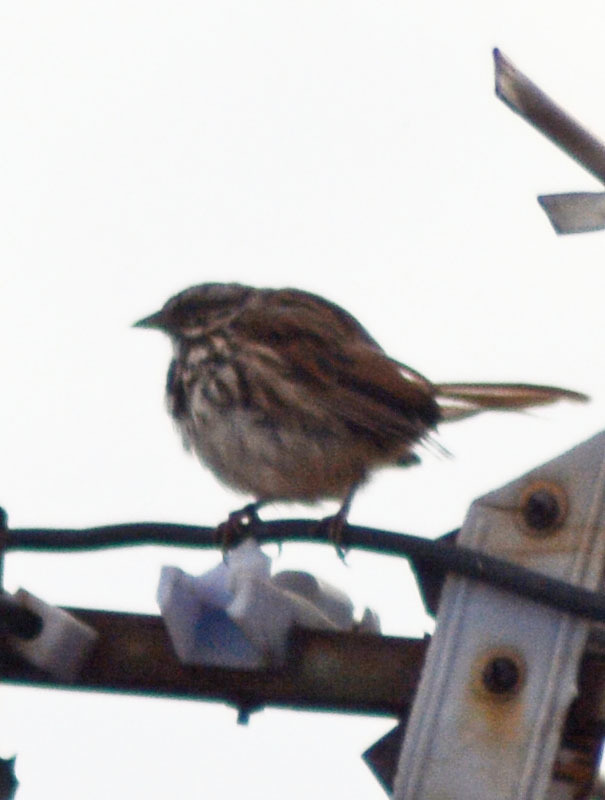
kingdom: Animalia
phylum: Chordata
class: Aves
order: Passeriformes
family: Passerellidae
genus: Melospiza
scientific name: Melospiza melodia
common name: Song sparrow
